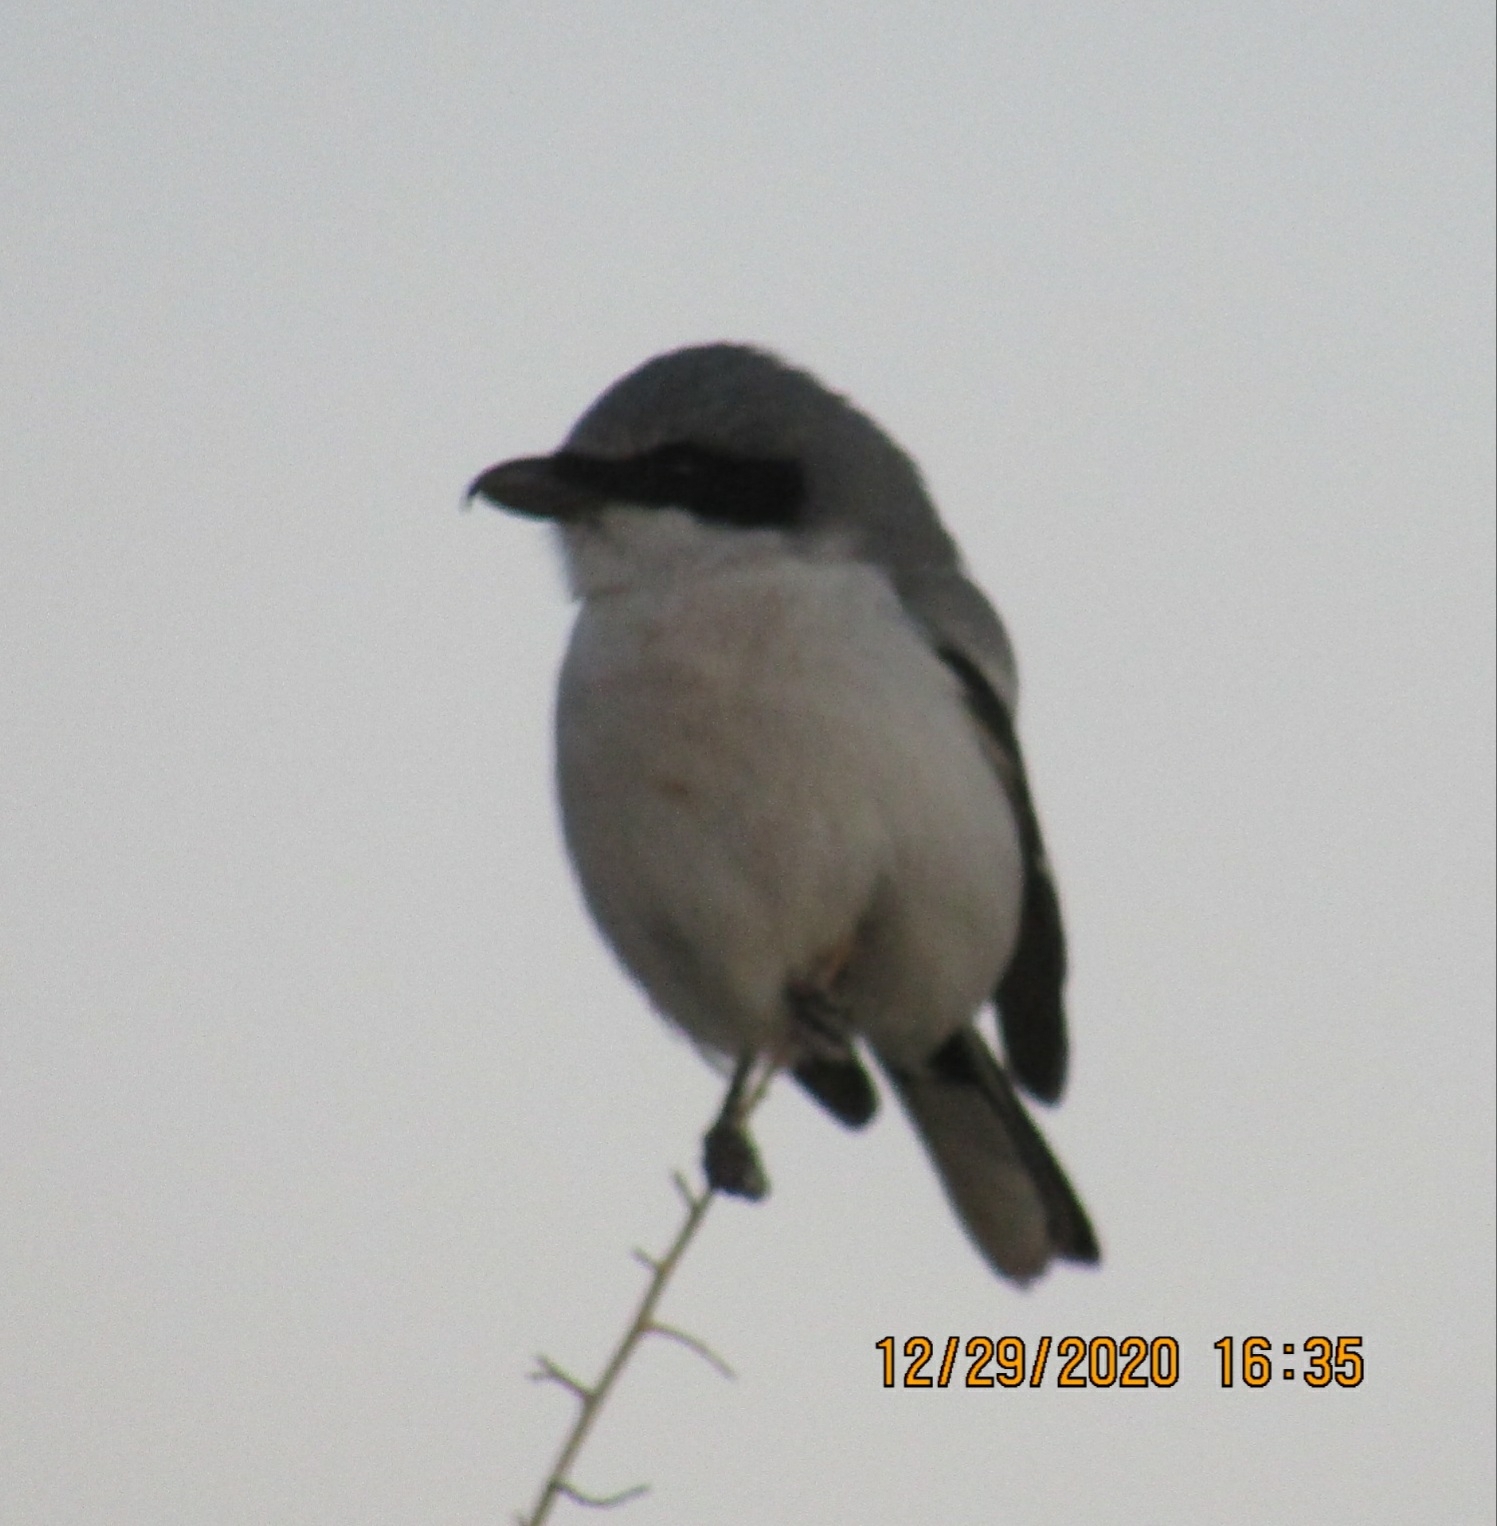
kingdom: Animalia
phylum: Chordata
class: Aves
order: Passeriformes
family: Laniidae
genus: Lanius
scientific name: Lanius ludovicianus
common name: Loggerhead shrike
